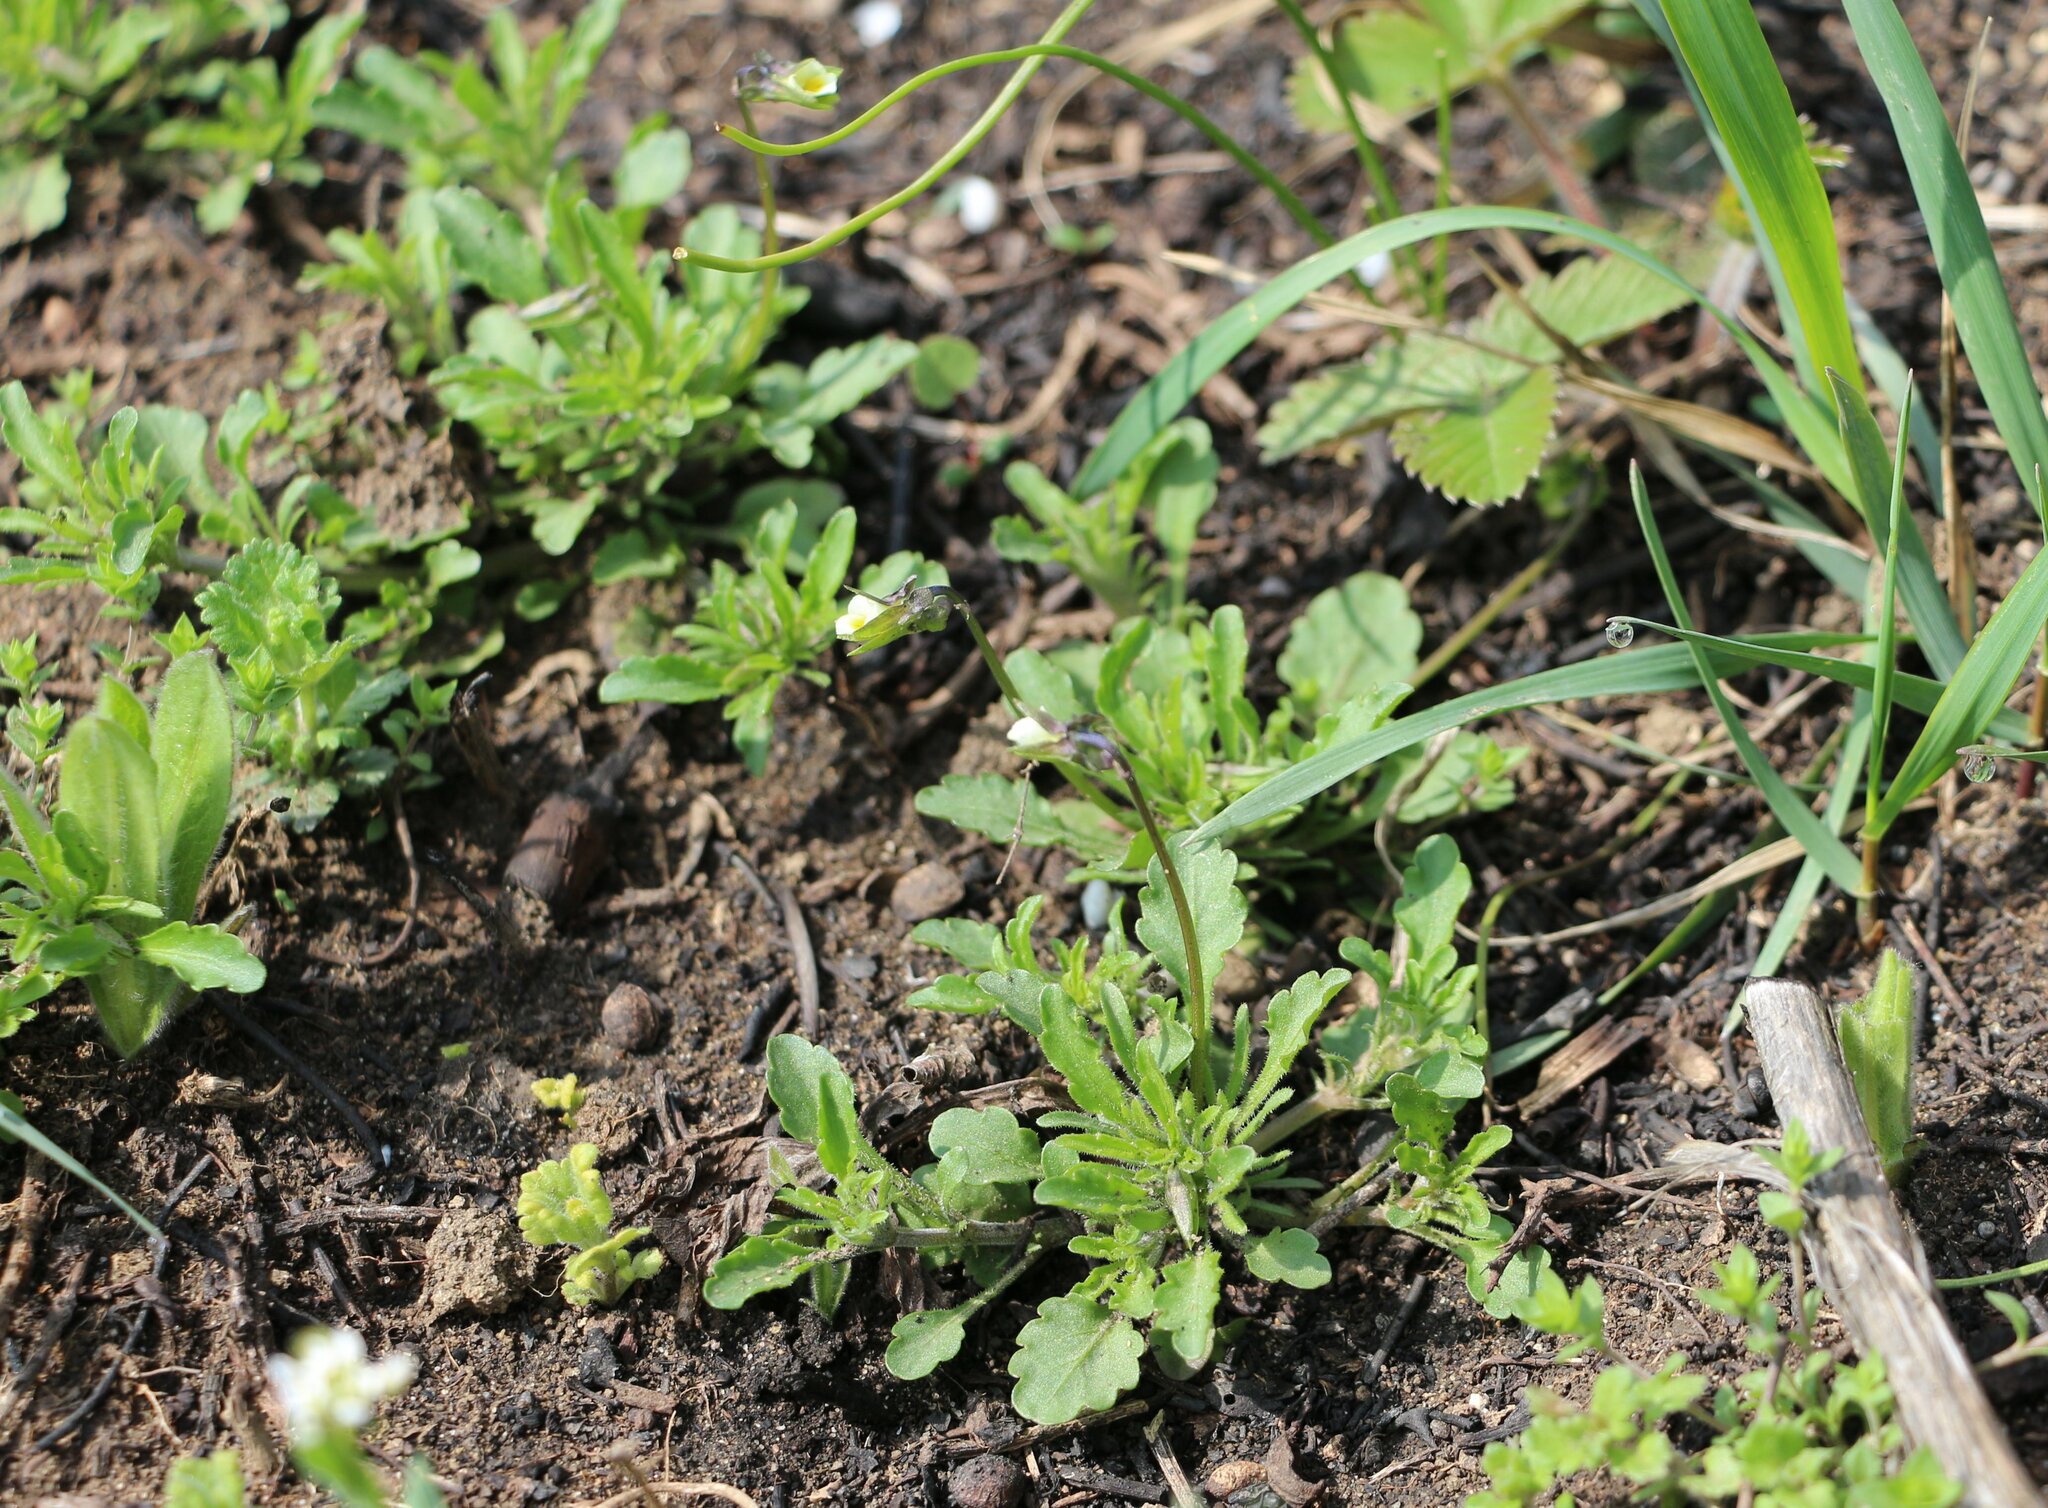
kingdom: Plantae
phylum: Tracheophyta
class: Magnoliopsida
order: Malpighiales
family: Violaceae
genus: Viola
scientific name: Viola kitaibeliana
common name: Dwarf pansy
